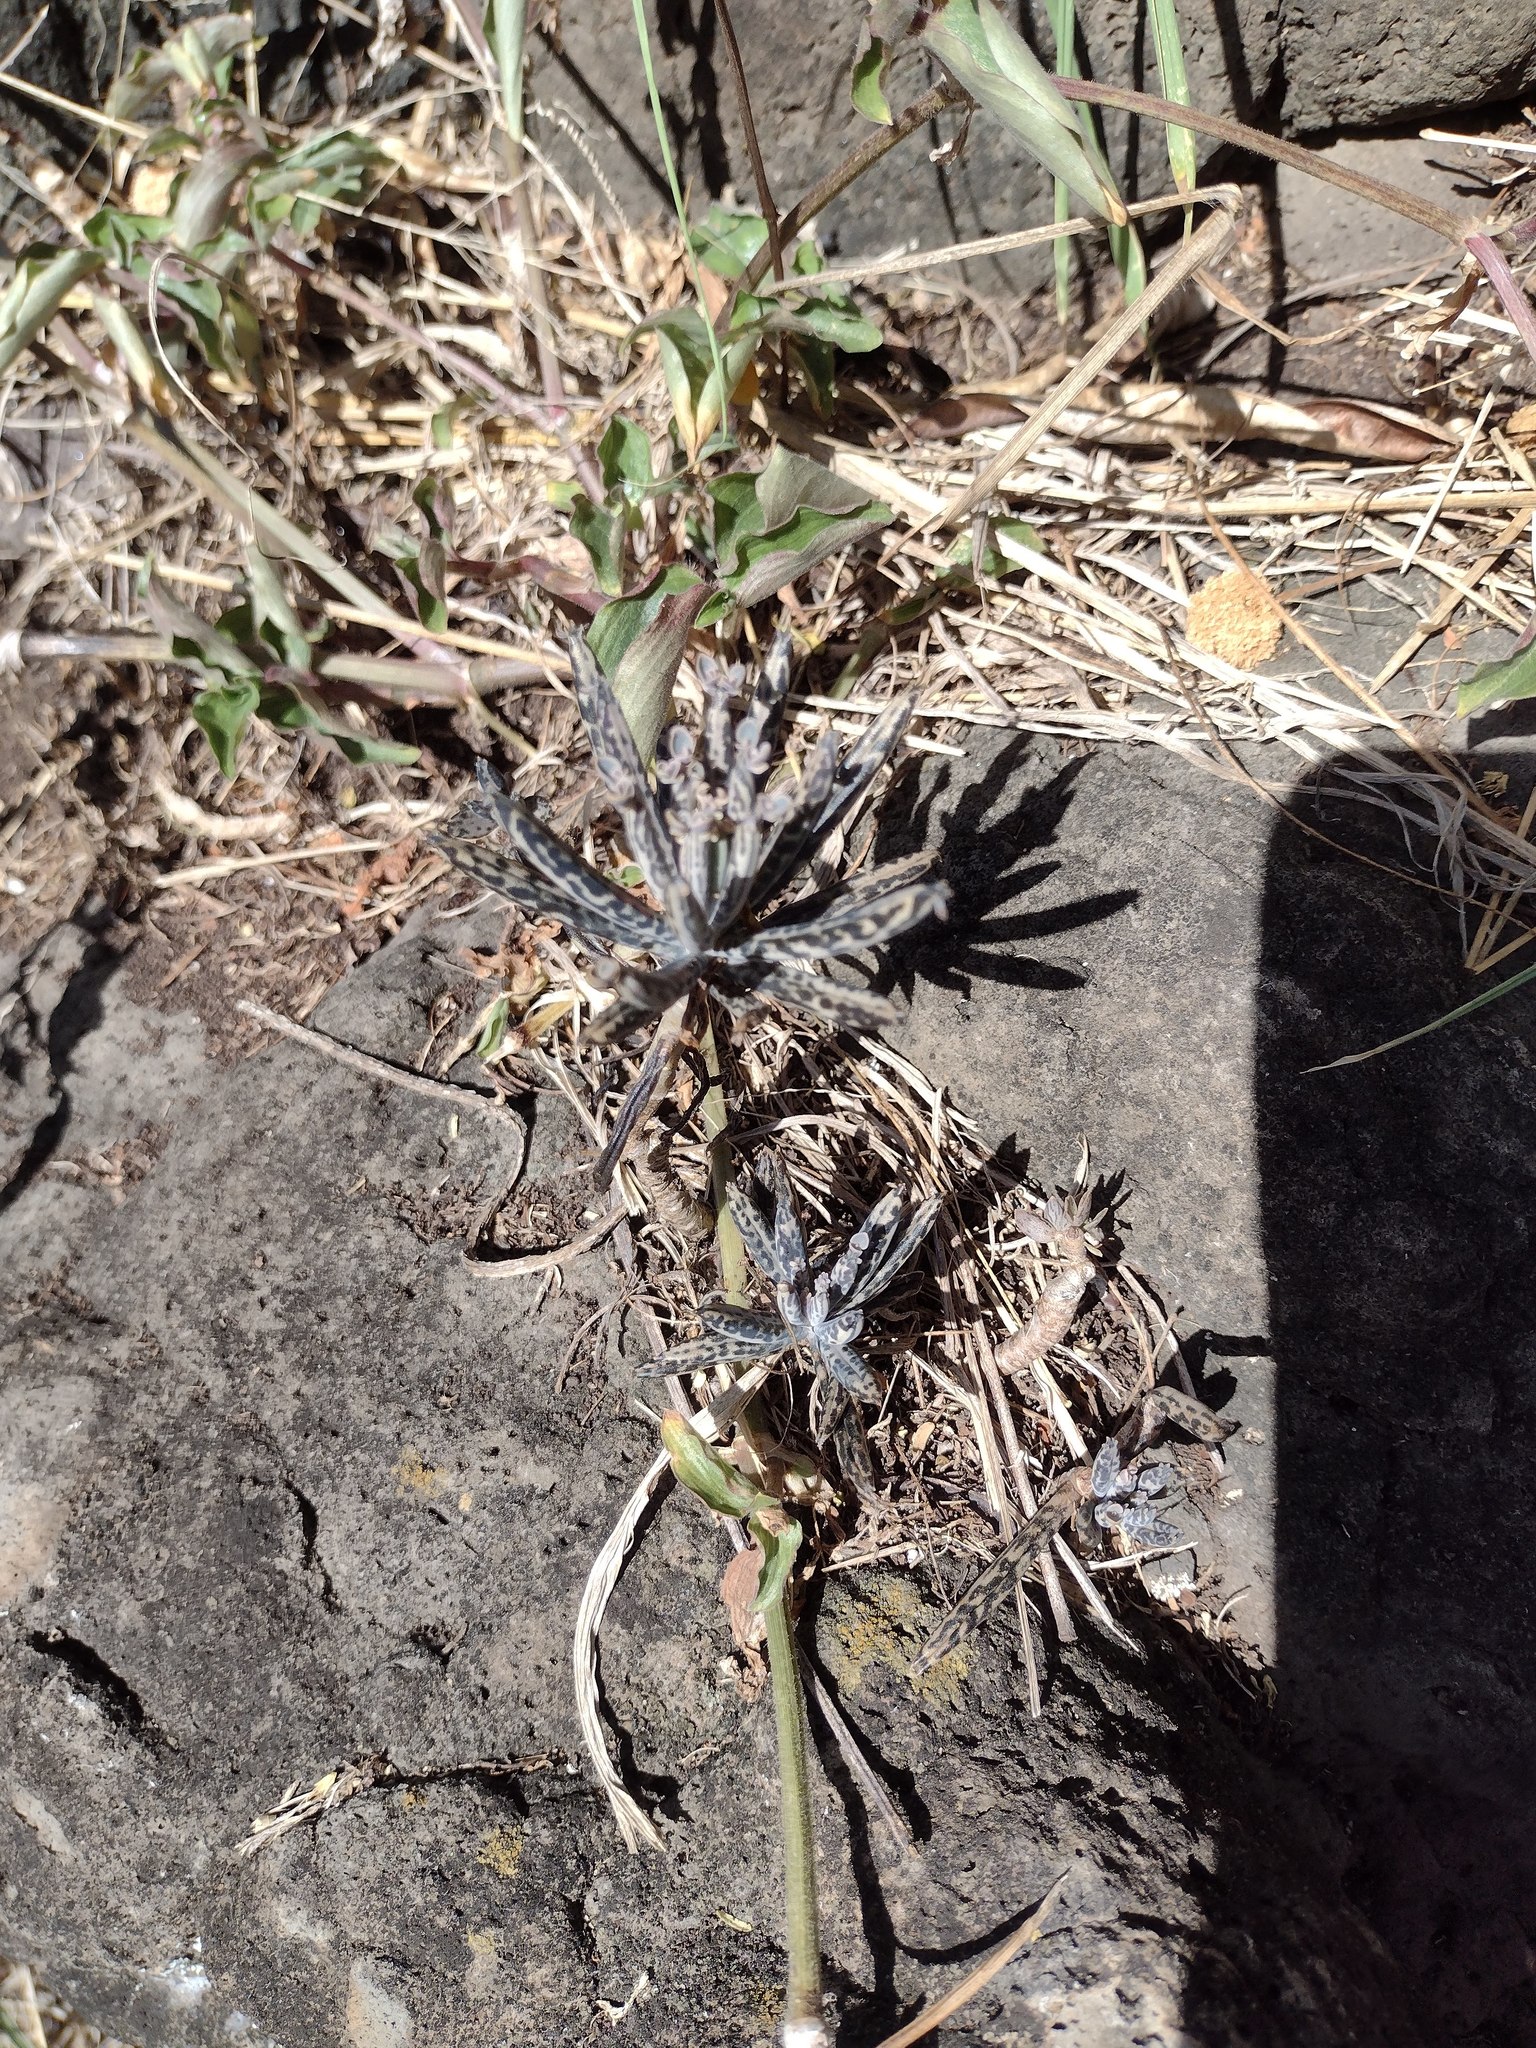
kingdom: Plantae
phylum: Tracheophyta
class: Magnoliopsida
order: Saxifragales
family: Crassulaceae
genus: Kalanchoe
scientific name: Kalanchoe delagoensis
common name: Chandelier plant
